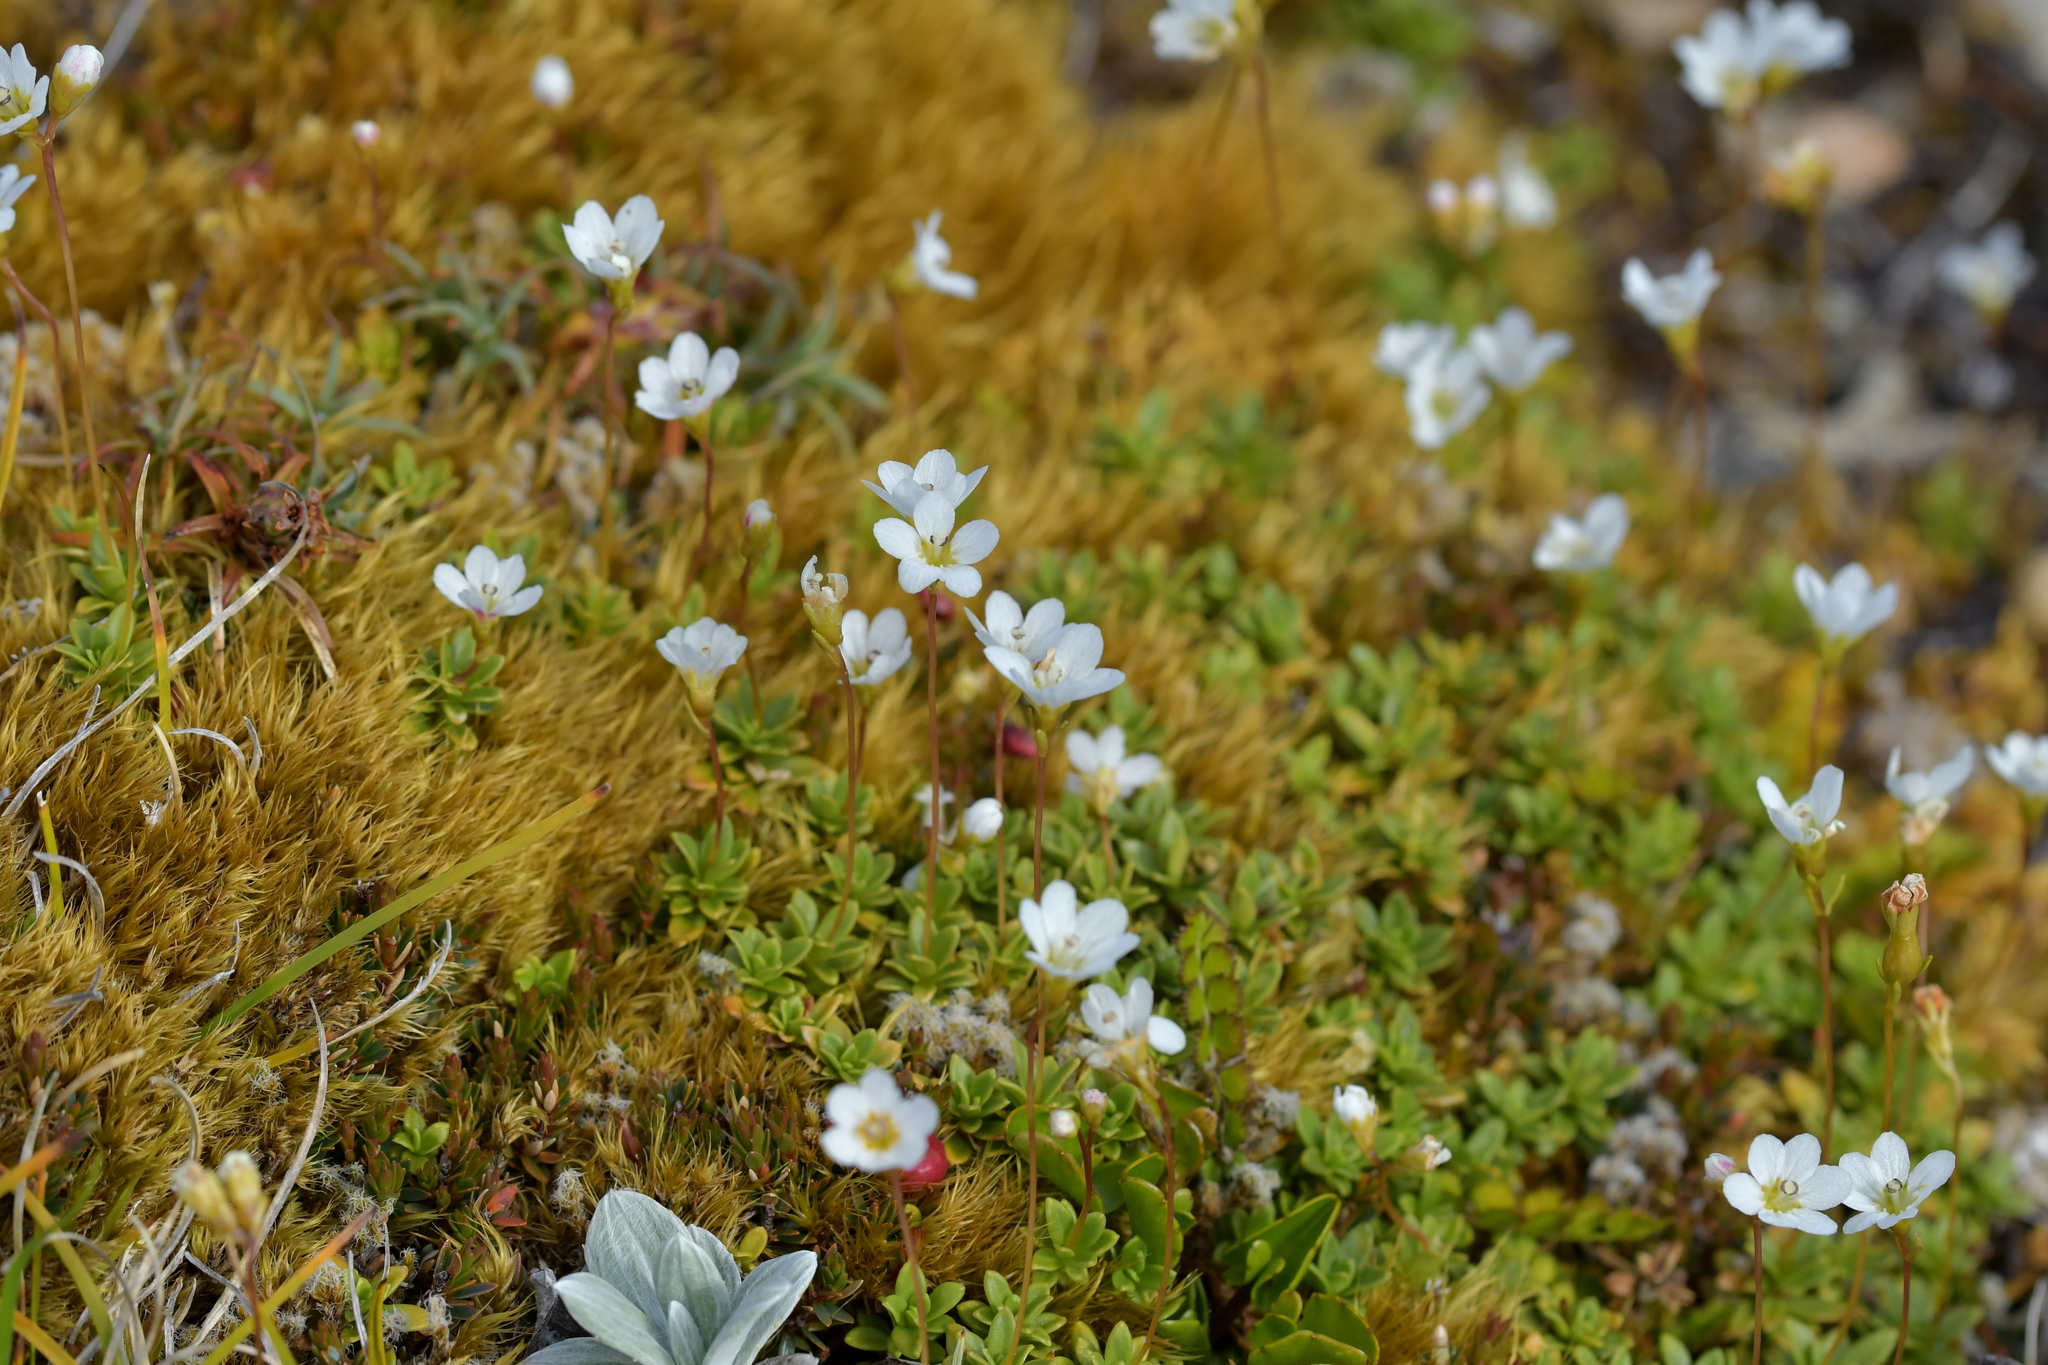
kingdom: Plantae
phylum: Tracheophyta
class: Magnoliopsida
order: Asterales
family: Stylidiaceae
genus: Forstera
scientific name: Forstera tenella
